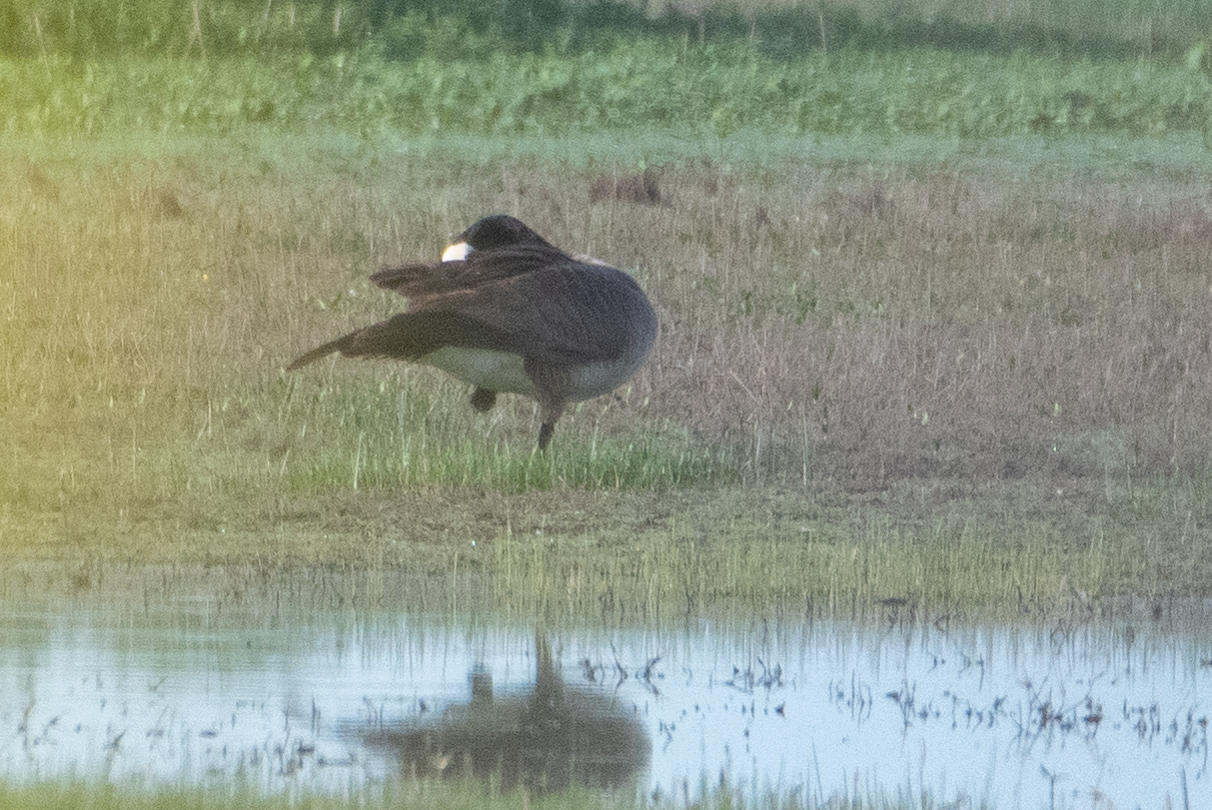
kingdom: Animalia
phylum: Chordata
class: Aves
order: Anseriformes
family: Anatidae
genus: Branta
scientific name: Branta canadensis
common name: Canada goose
